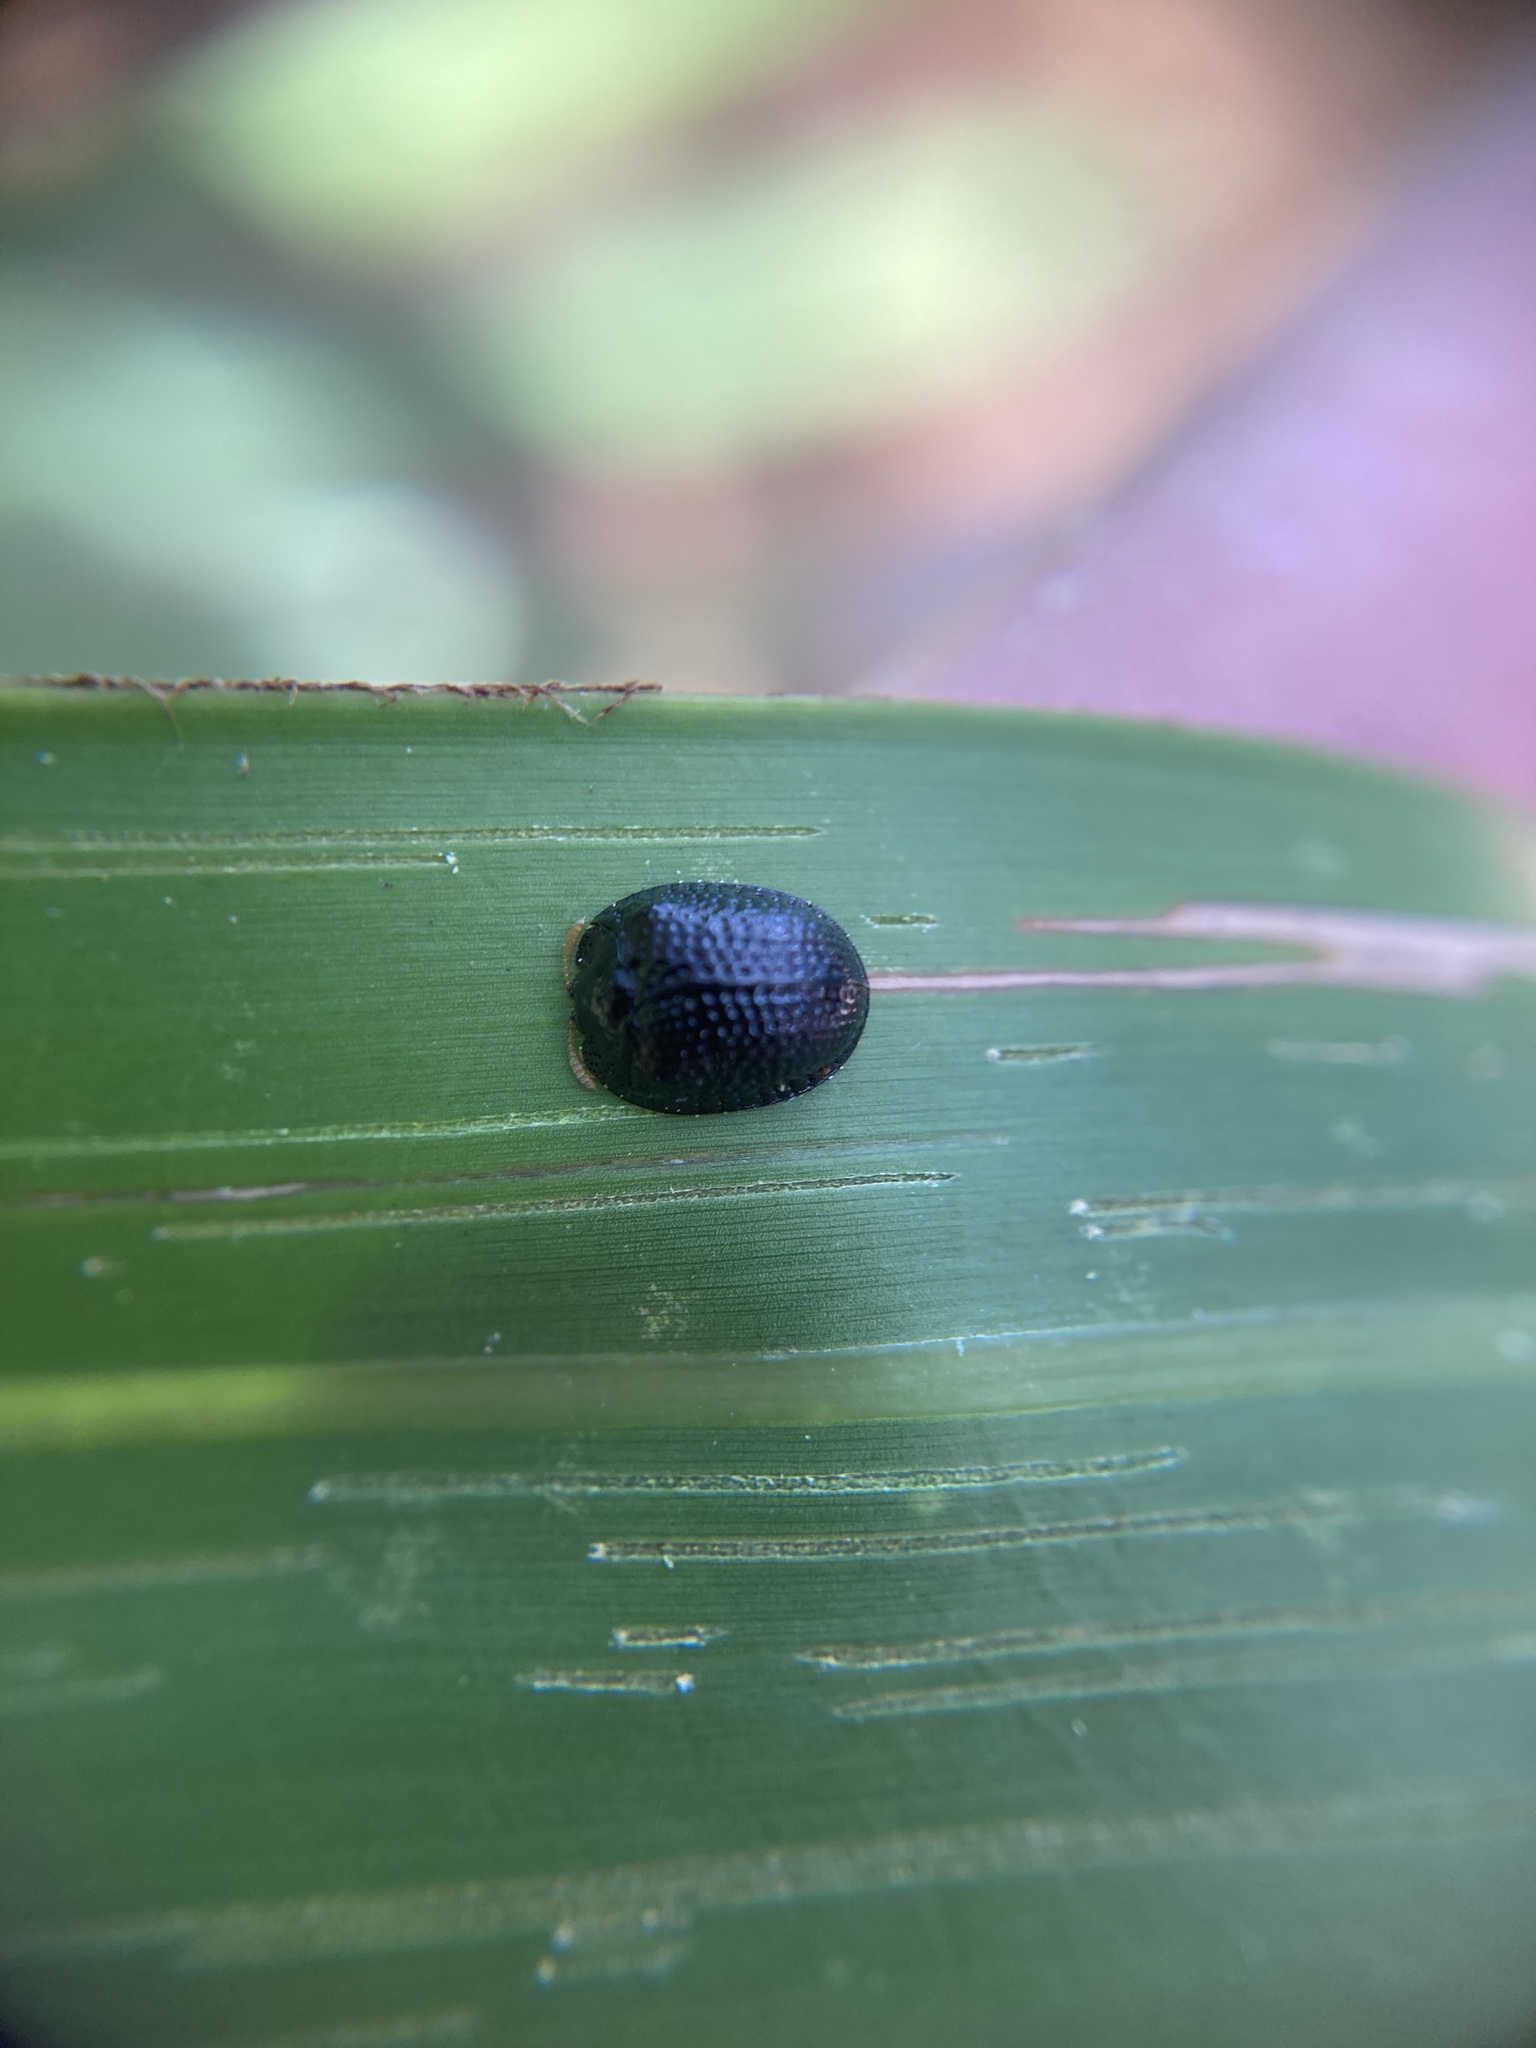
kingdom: Animalia
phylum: Arthropoda
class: Insecta
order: Coleoptera
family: Chrysomelidae
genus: Hemisphaerota
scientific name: Hemisphaerota cyanea
